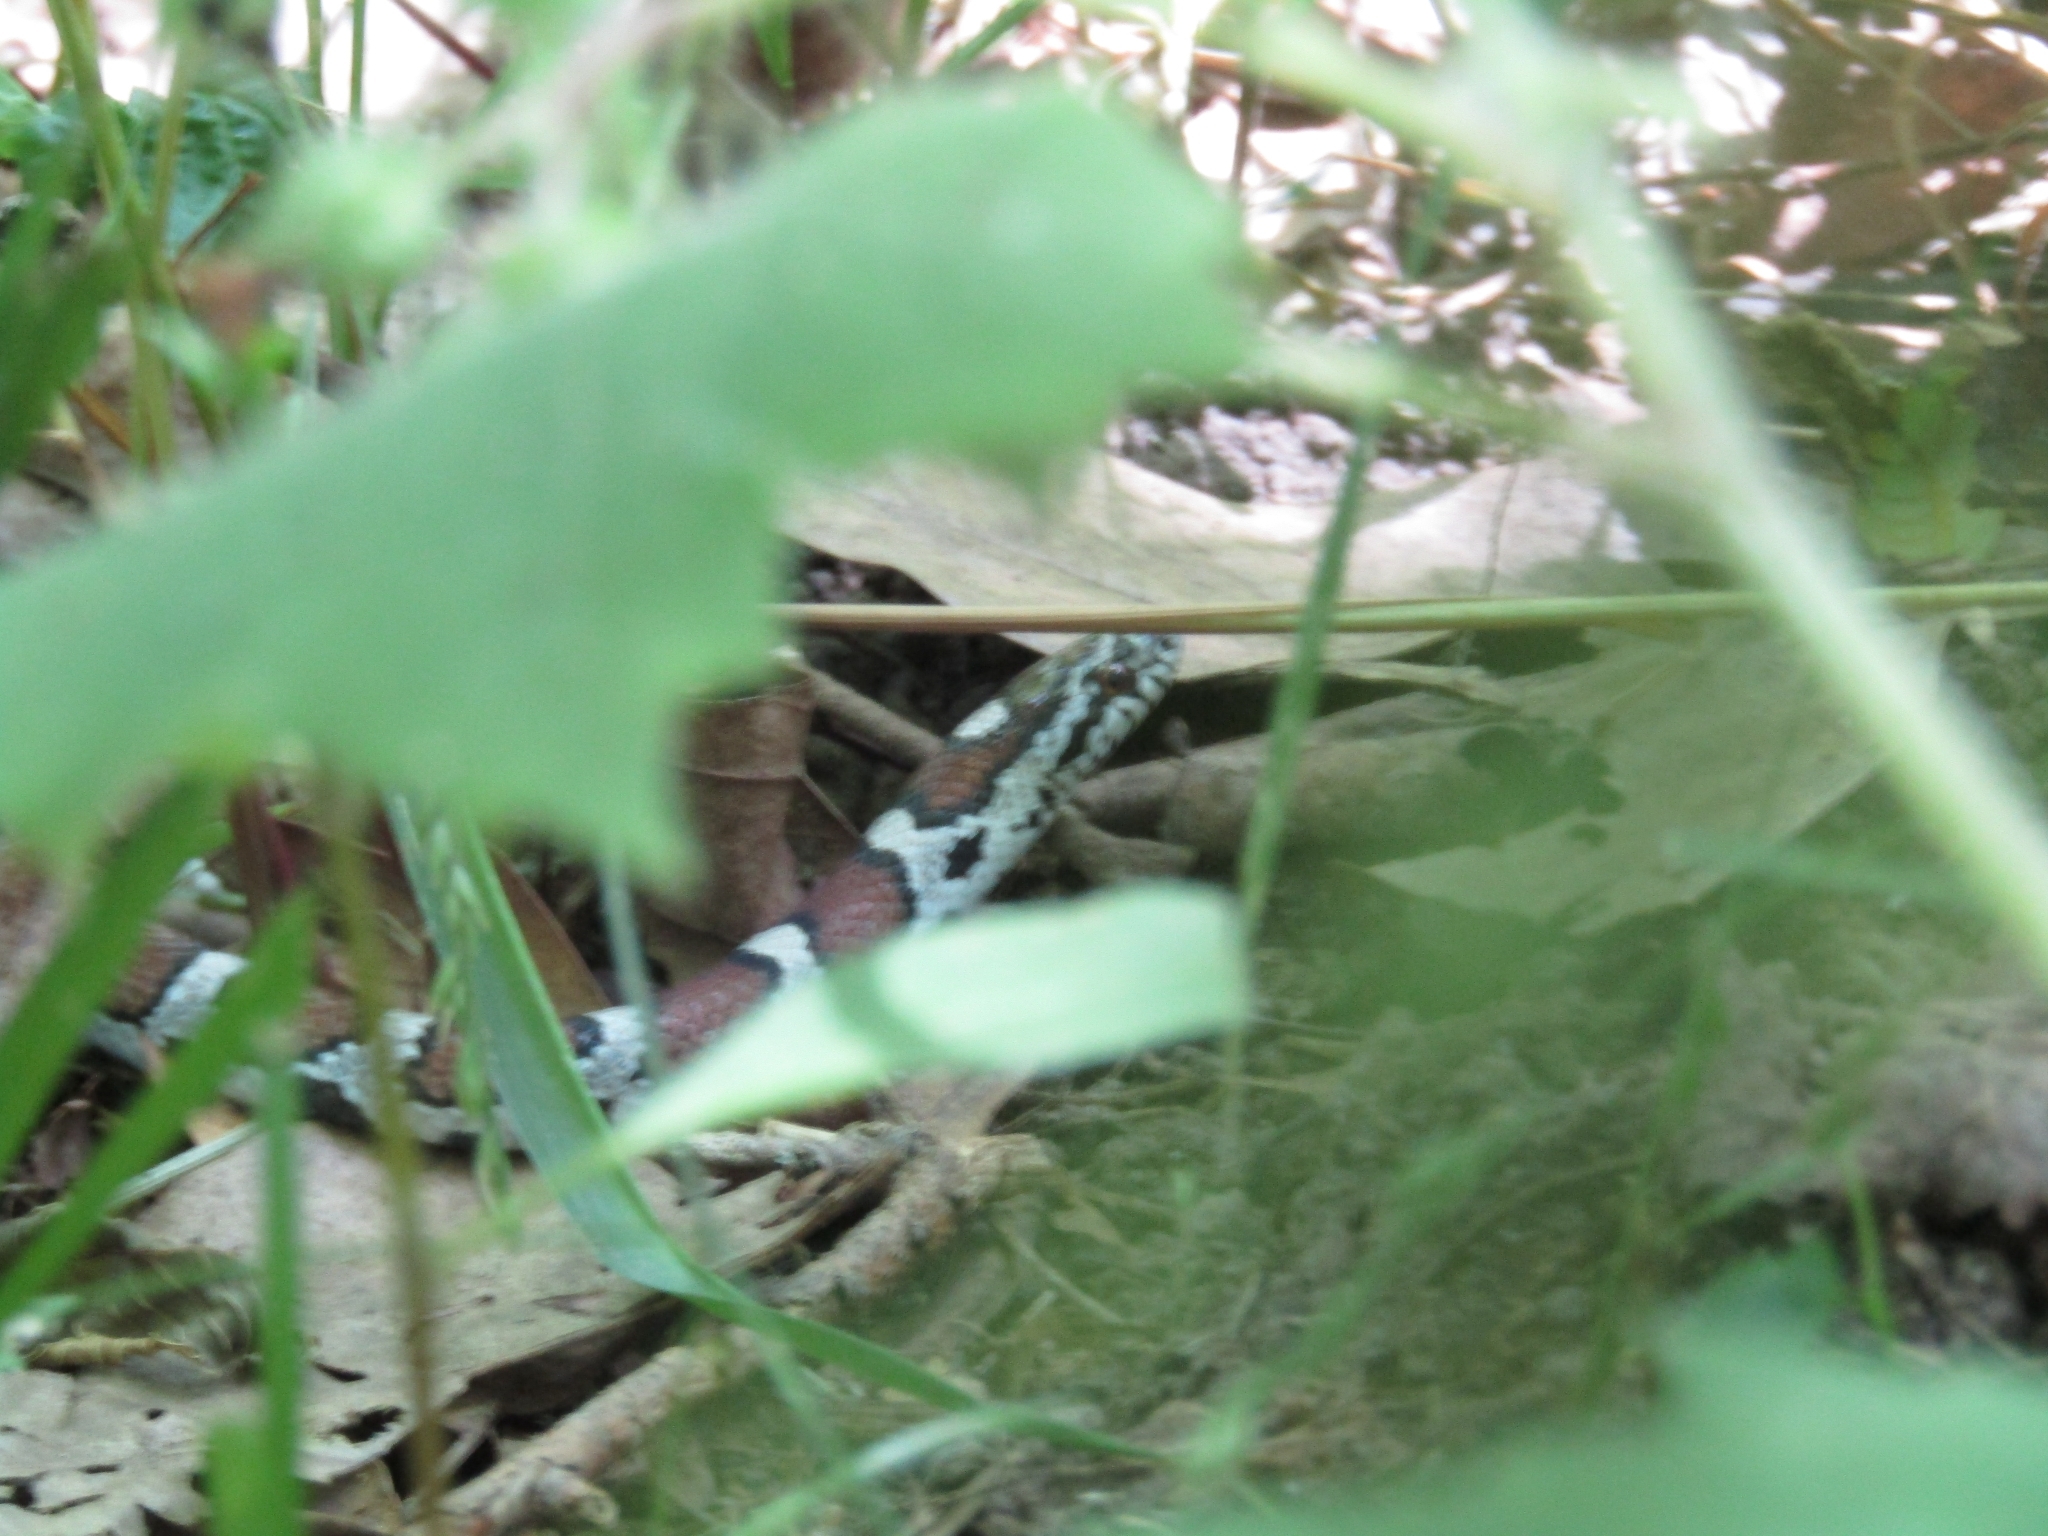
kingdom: Animalia
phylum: Chordata
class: Squamata
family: Colubridae
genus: Lampropeltis
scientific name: Lampropeltis triangulum
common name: Eastern milksnake
